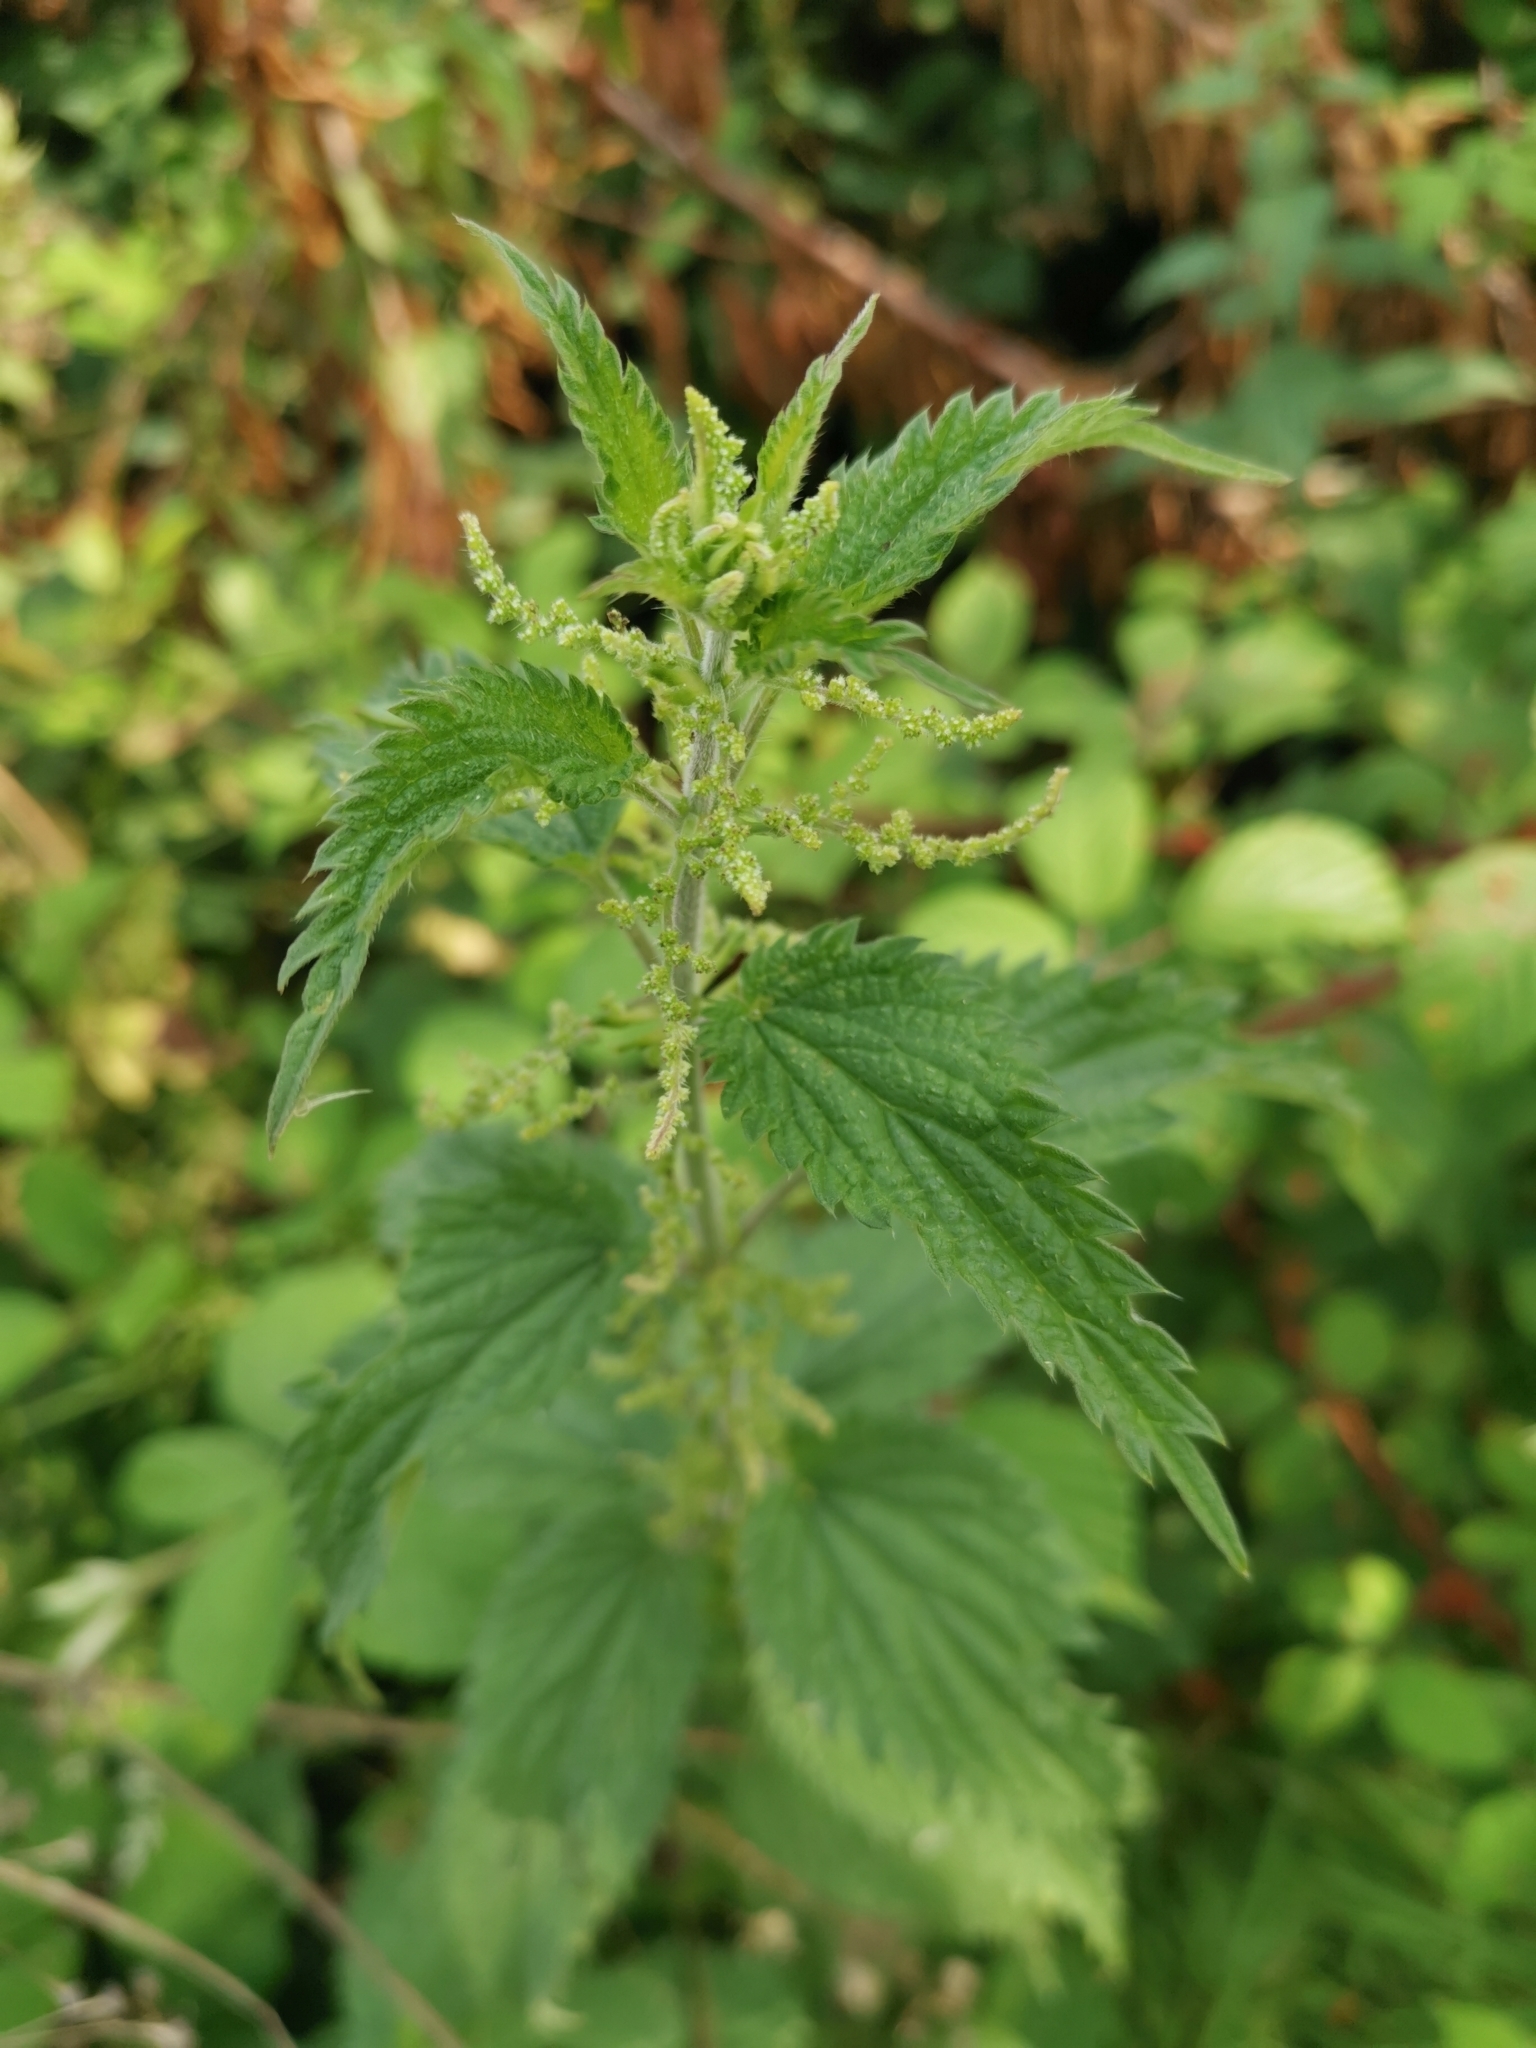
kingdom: Plantae
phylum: Tracheophyta
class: Magnoliopsida
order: Rosales
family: Urticaceae
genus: Urtica
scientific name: Urtica dioica
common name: Common nettle
